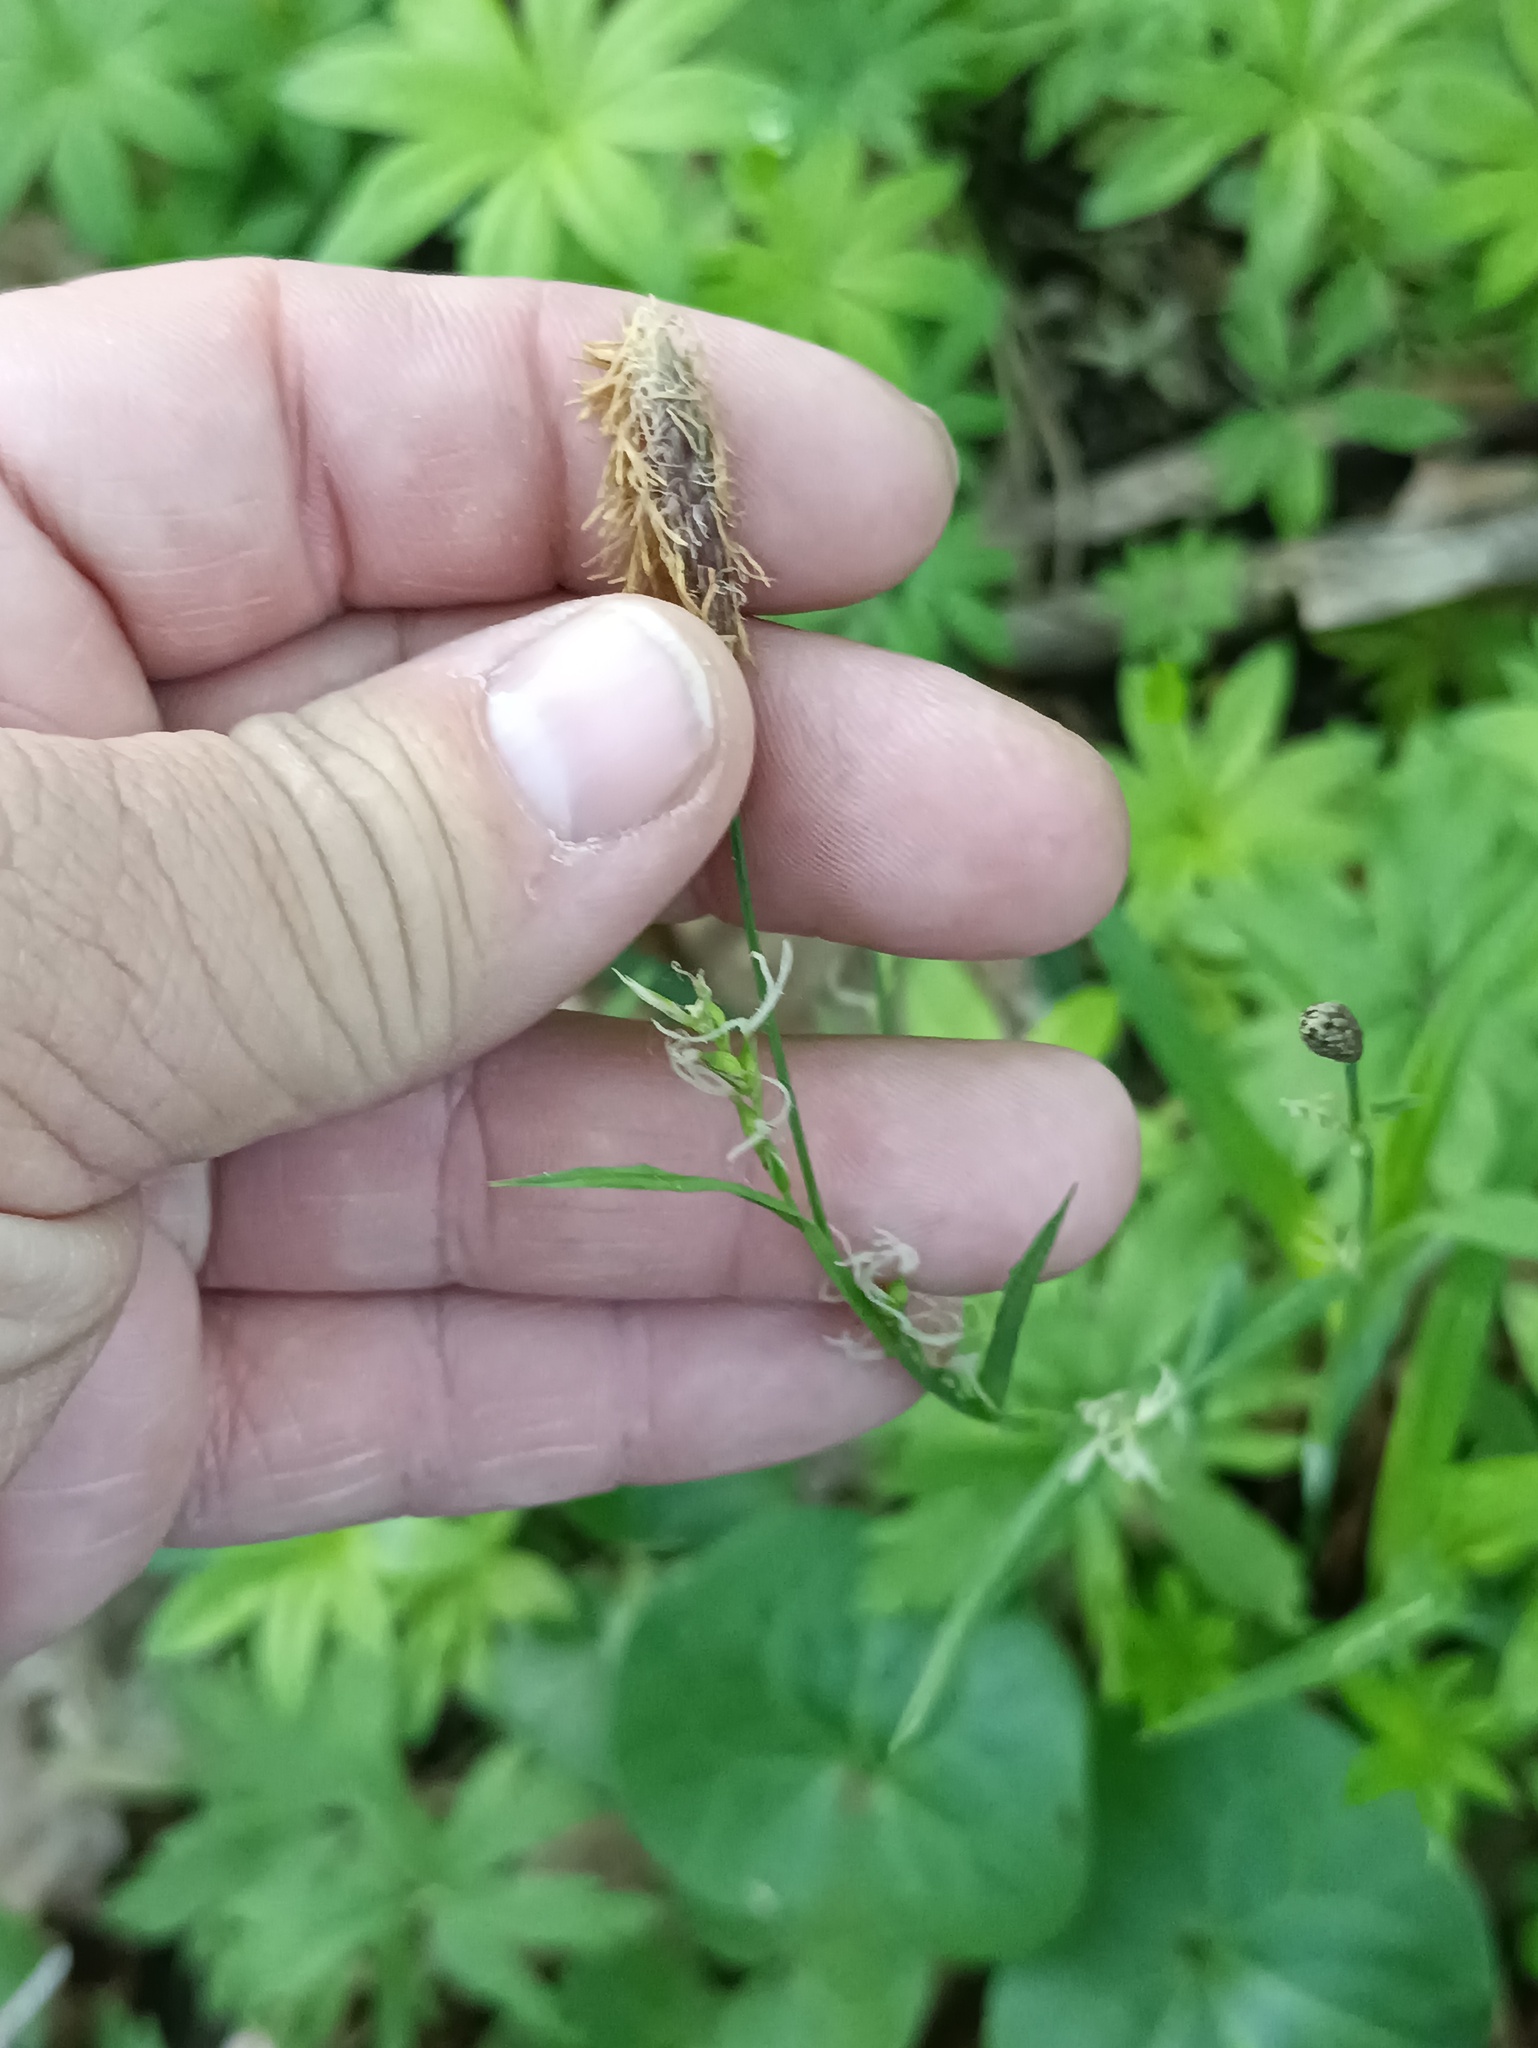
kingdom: Plantae
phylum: Tracheophyta
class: Liliopsida
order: Poales
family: Cyperaceae
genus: Carex
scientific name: Carex pilosa
